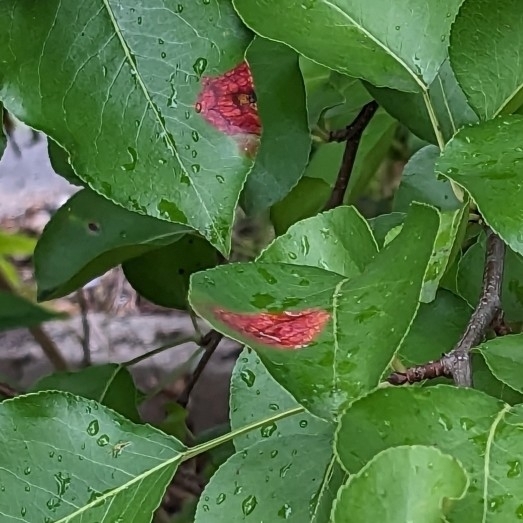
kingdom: Fungi
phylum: Basidiomycota
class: Pucciniomycetes
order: Pucciniales
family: Gymnosporangiaceae
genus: Gymnosporangium
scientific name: Gymnosporangium sabinae
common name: Pear trellis rust fungus
